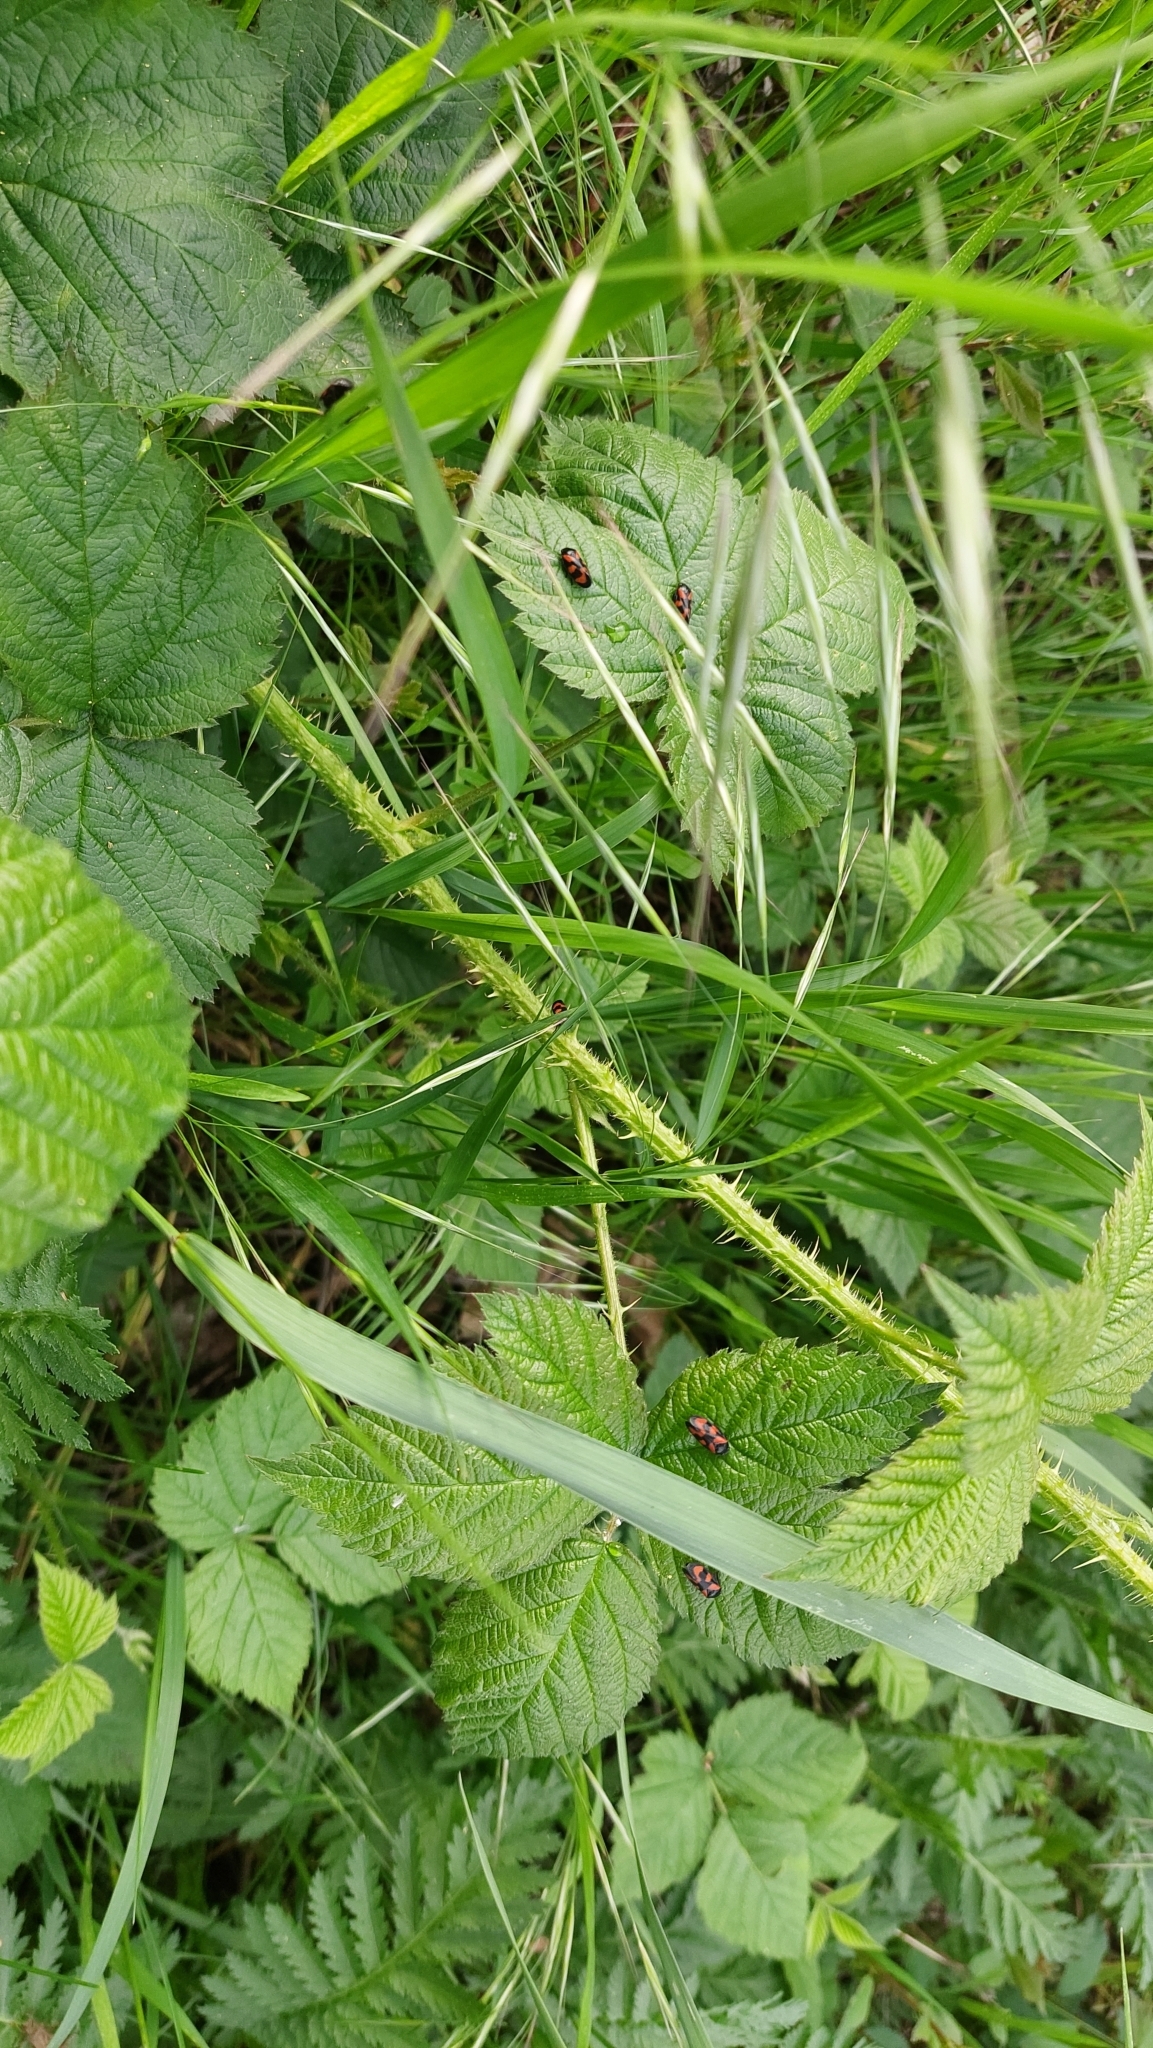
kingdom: Animalia
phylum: Arthropoda
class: Insecta
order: Hemiptera
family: Cercopidae
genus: Cercopis
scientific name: Cercopis vulnerata
